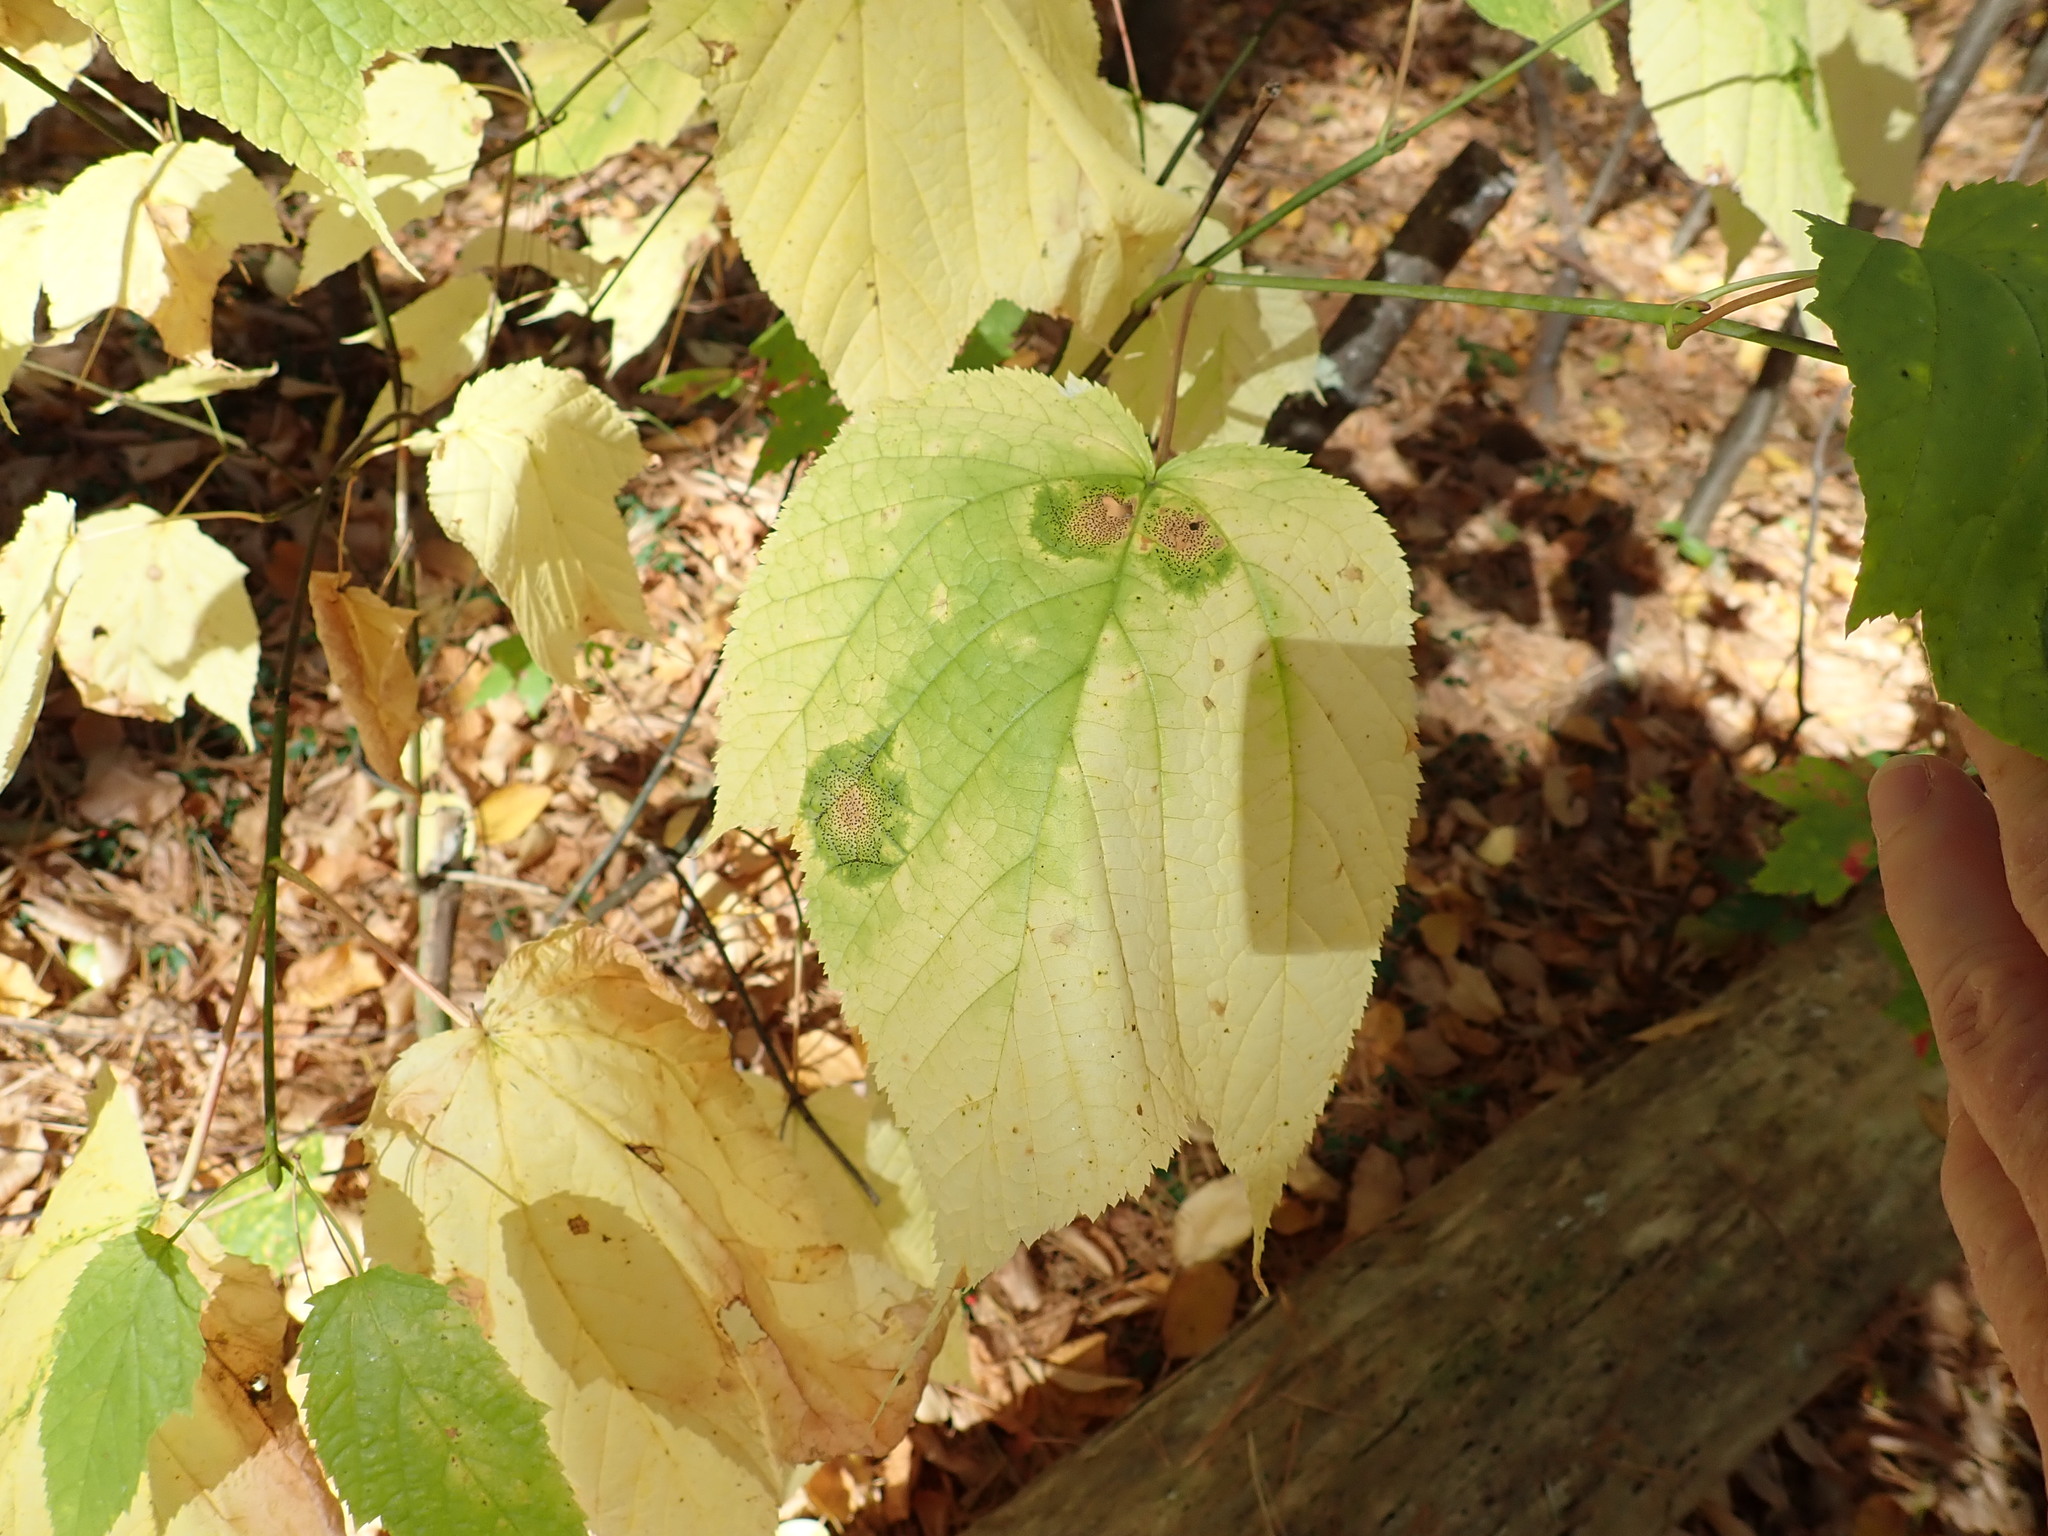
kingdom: Plantae
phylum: Tracheophyta
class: Magnoliopsida
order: Sapindales
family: Sapindaceae
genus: Acer
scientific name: Acer pensylvanicum
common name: Moosewood
